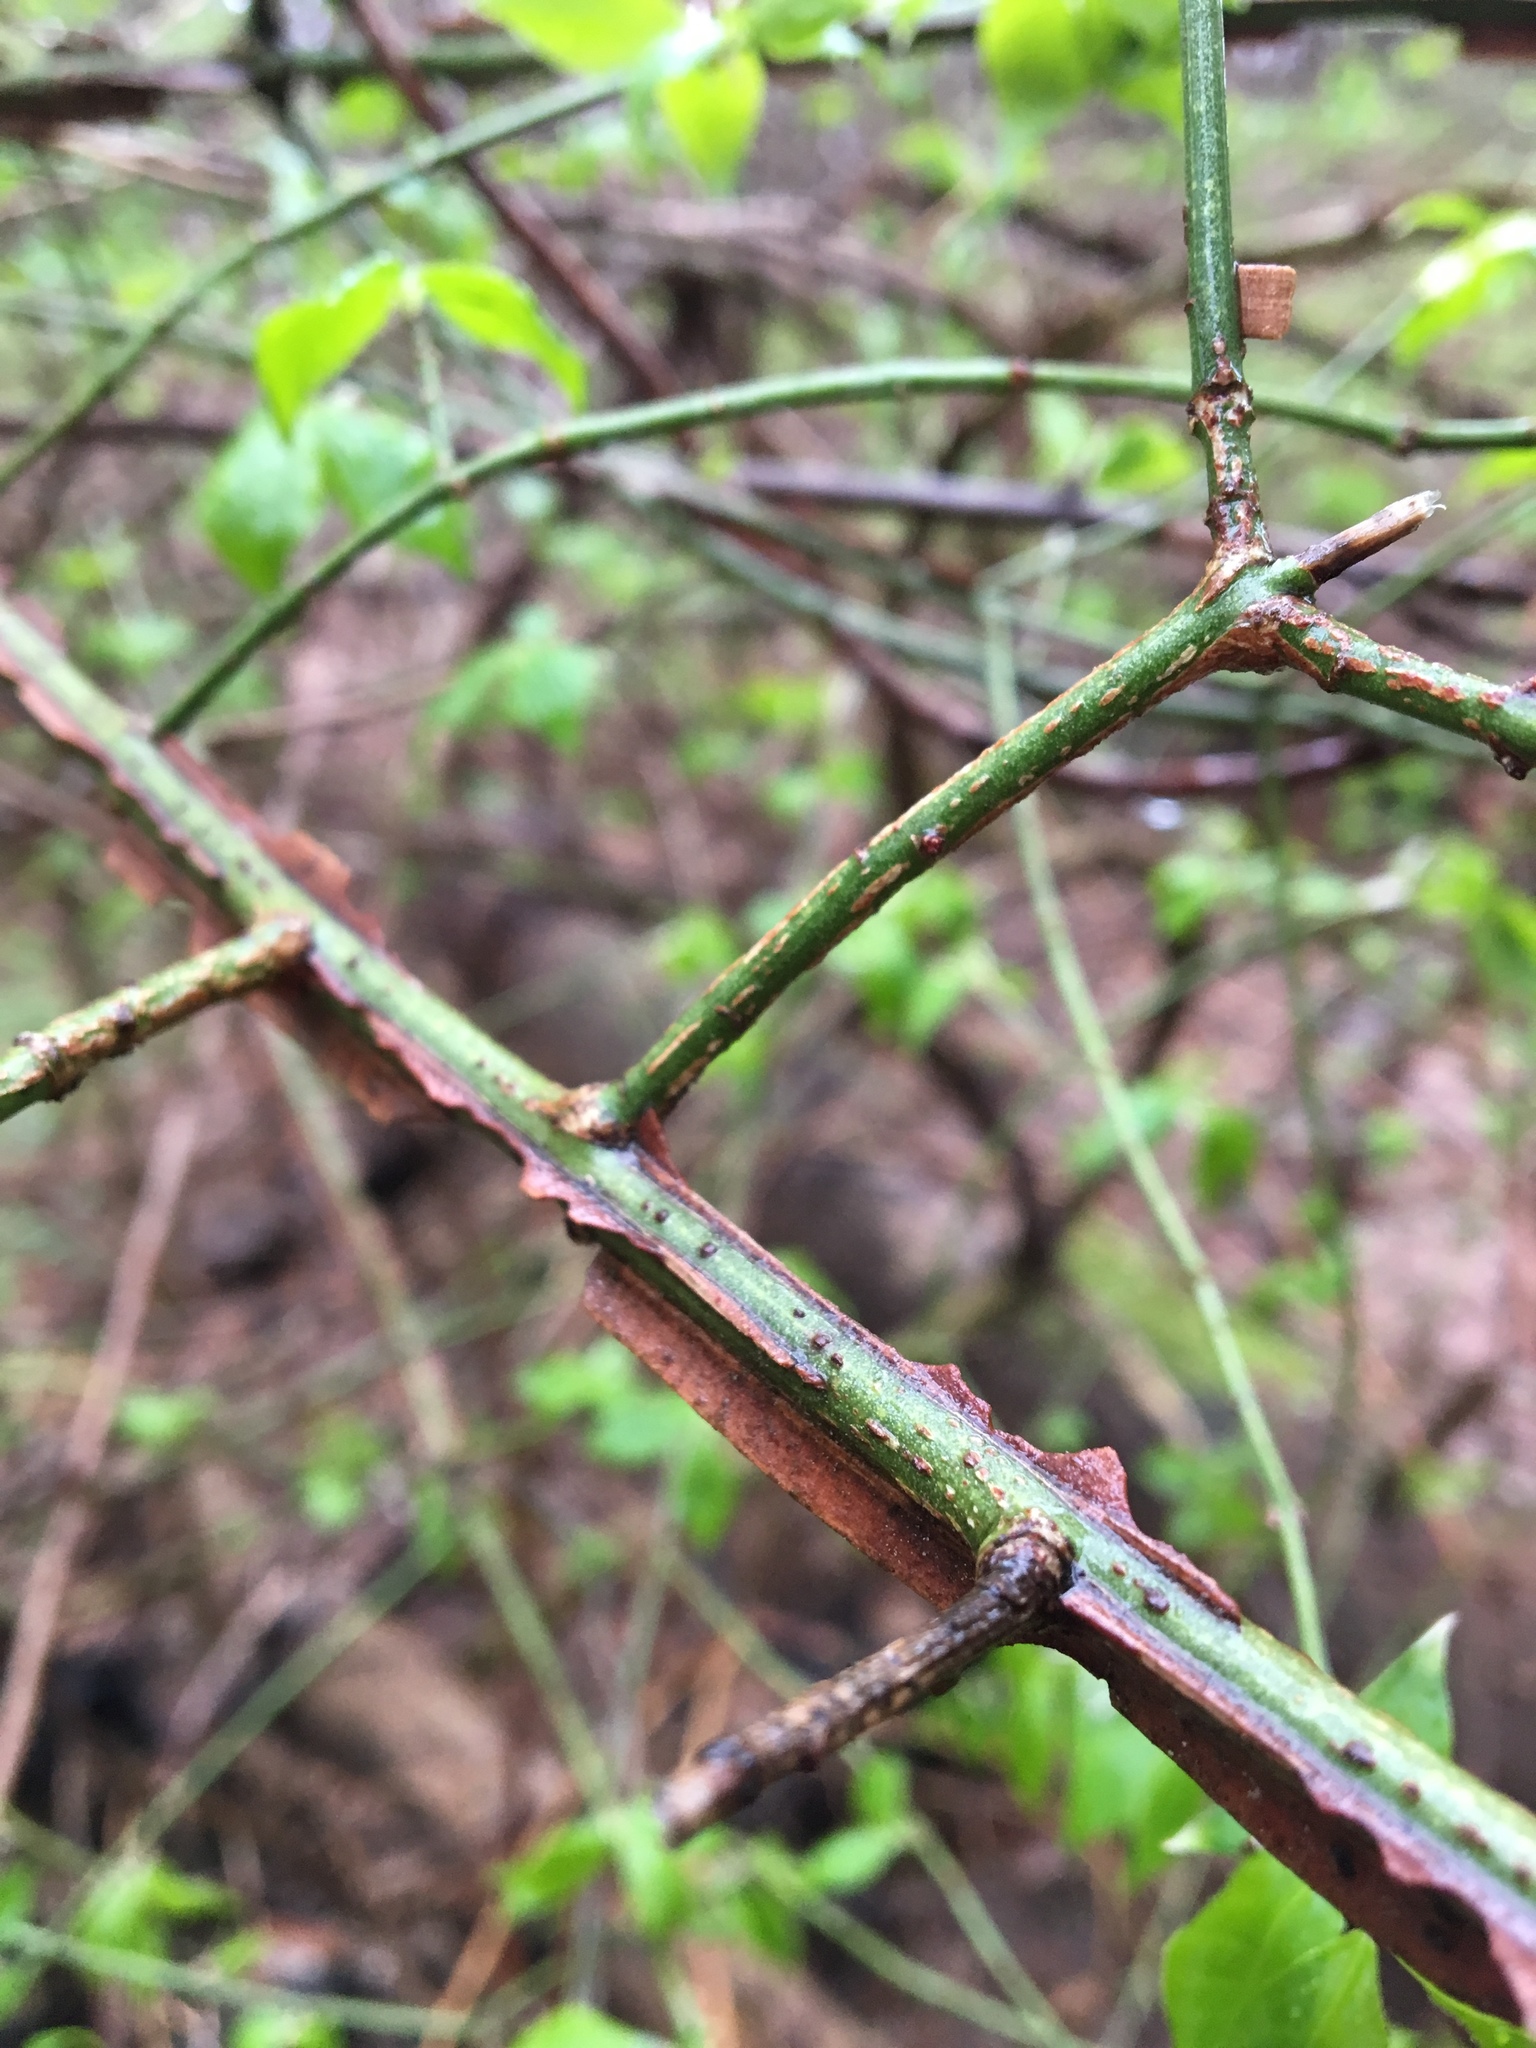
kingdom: Plantae
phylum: Tracheophyta
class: Magnoliopsida
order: Celastrales
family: Celastraceae
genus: Euonymus
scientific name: Euonymus alatus
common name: Winged euonymus
